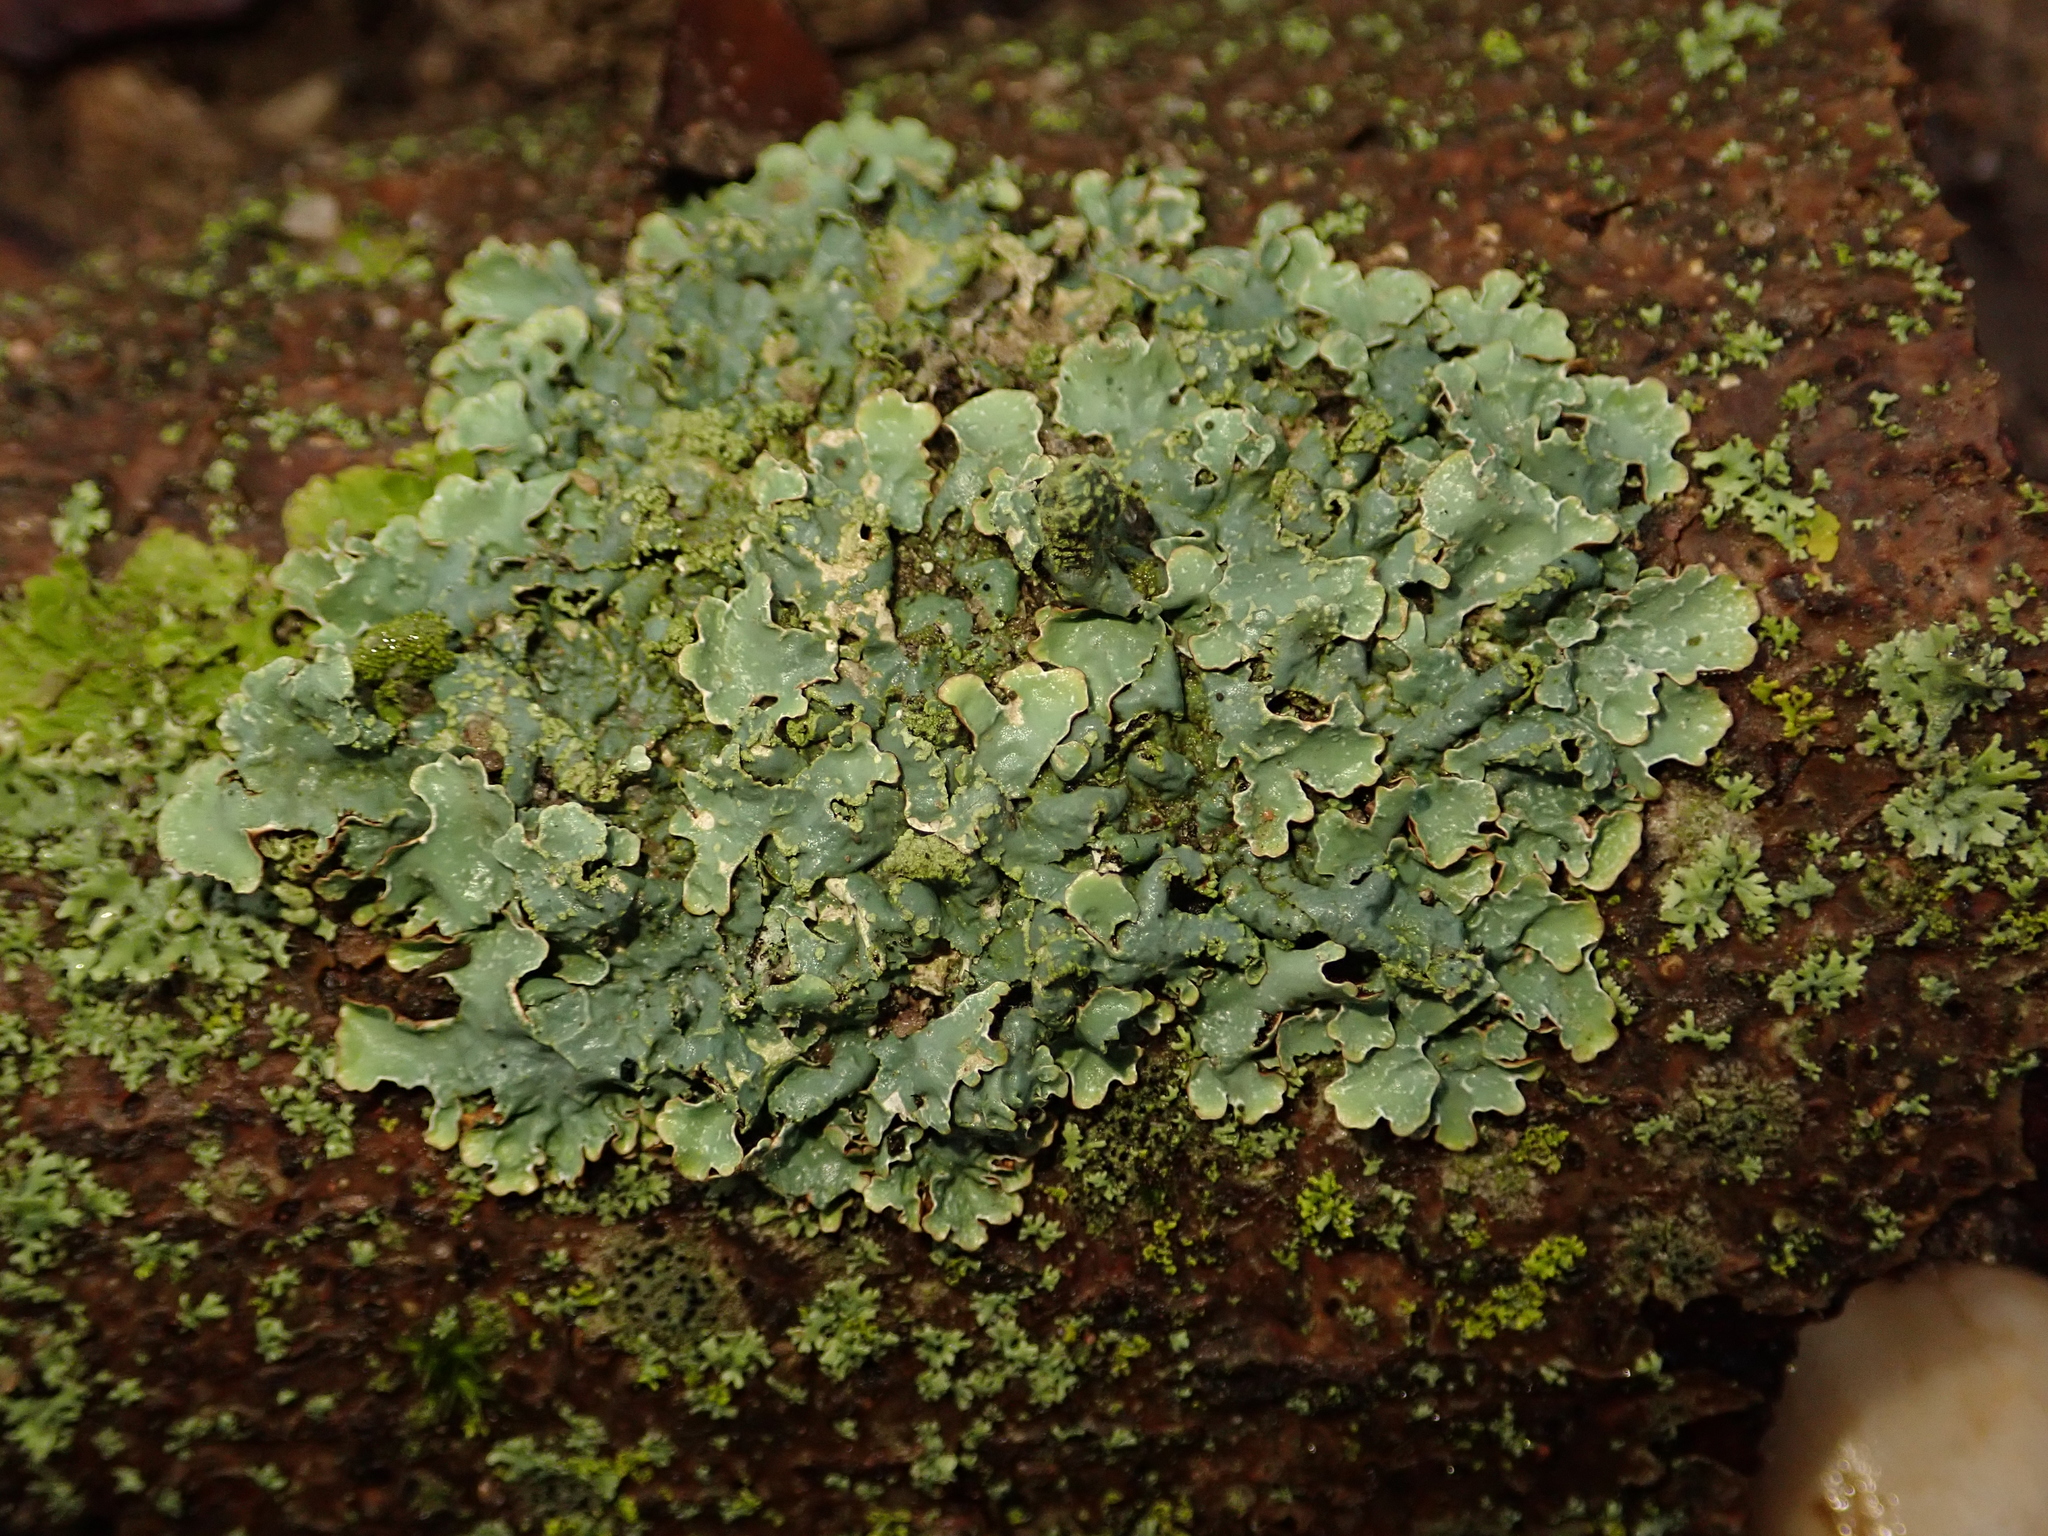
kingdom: Fungi
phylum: Ascomycota
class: Lecanoromycetes
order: Lecanorales
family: Parmeliaceae
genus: Parmelia
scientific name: Parmelia sulcata
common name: Netted shield lichen
